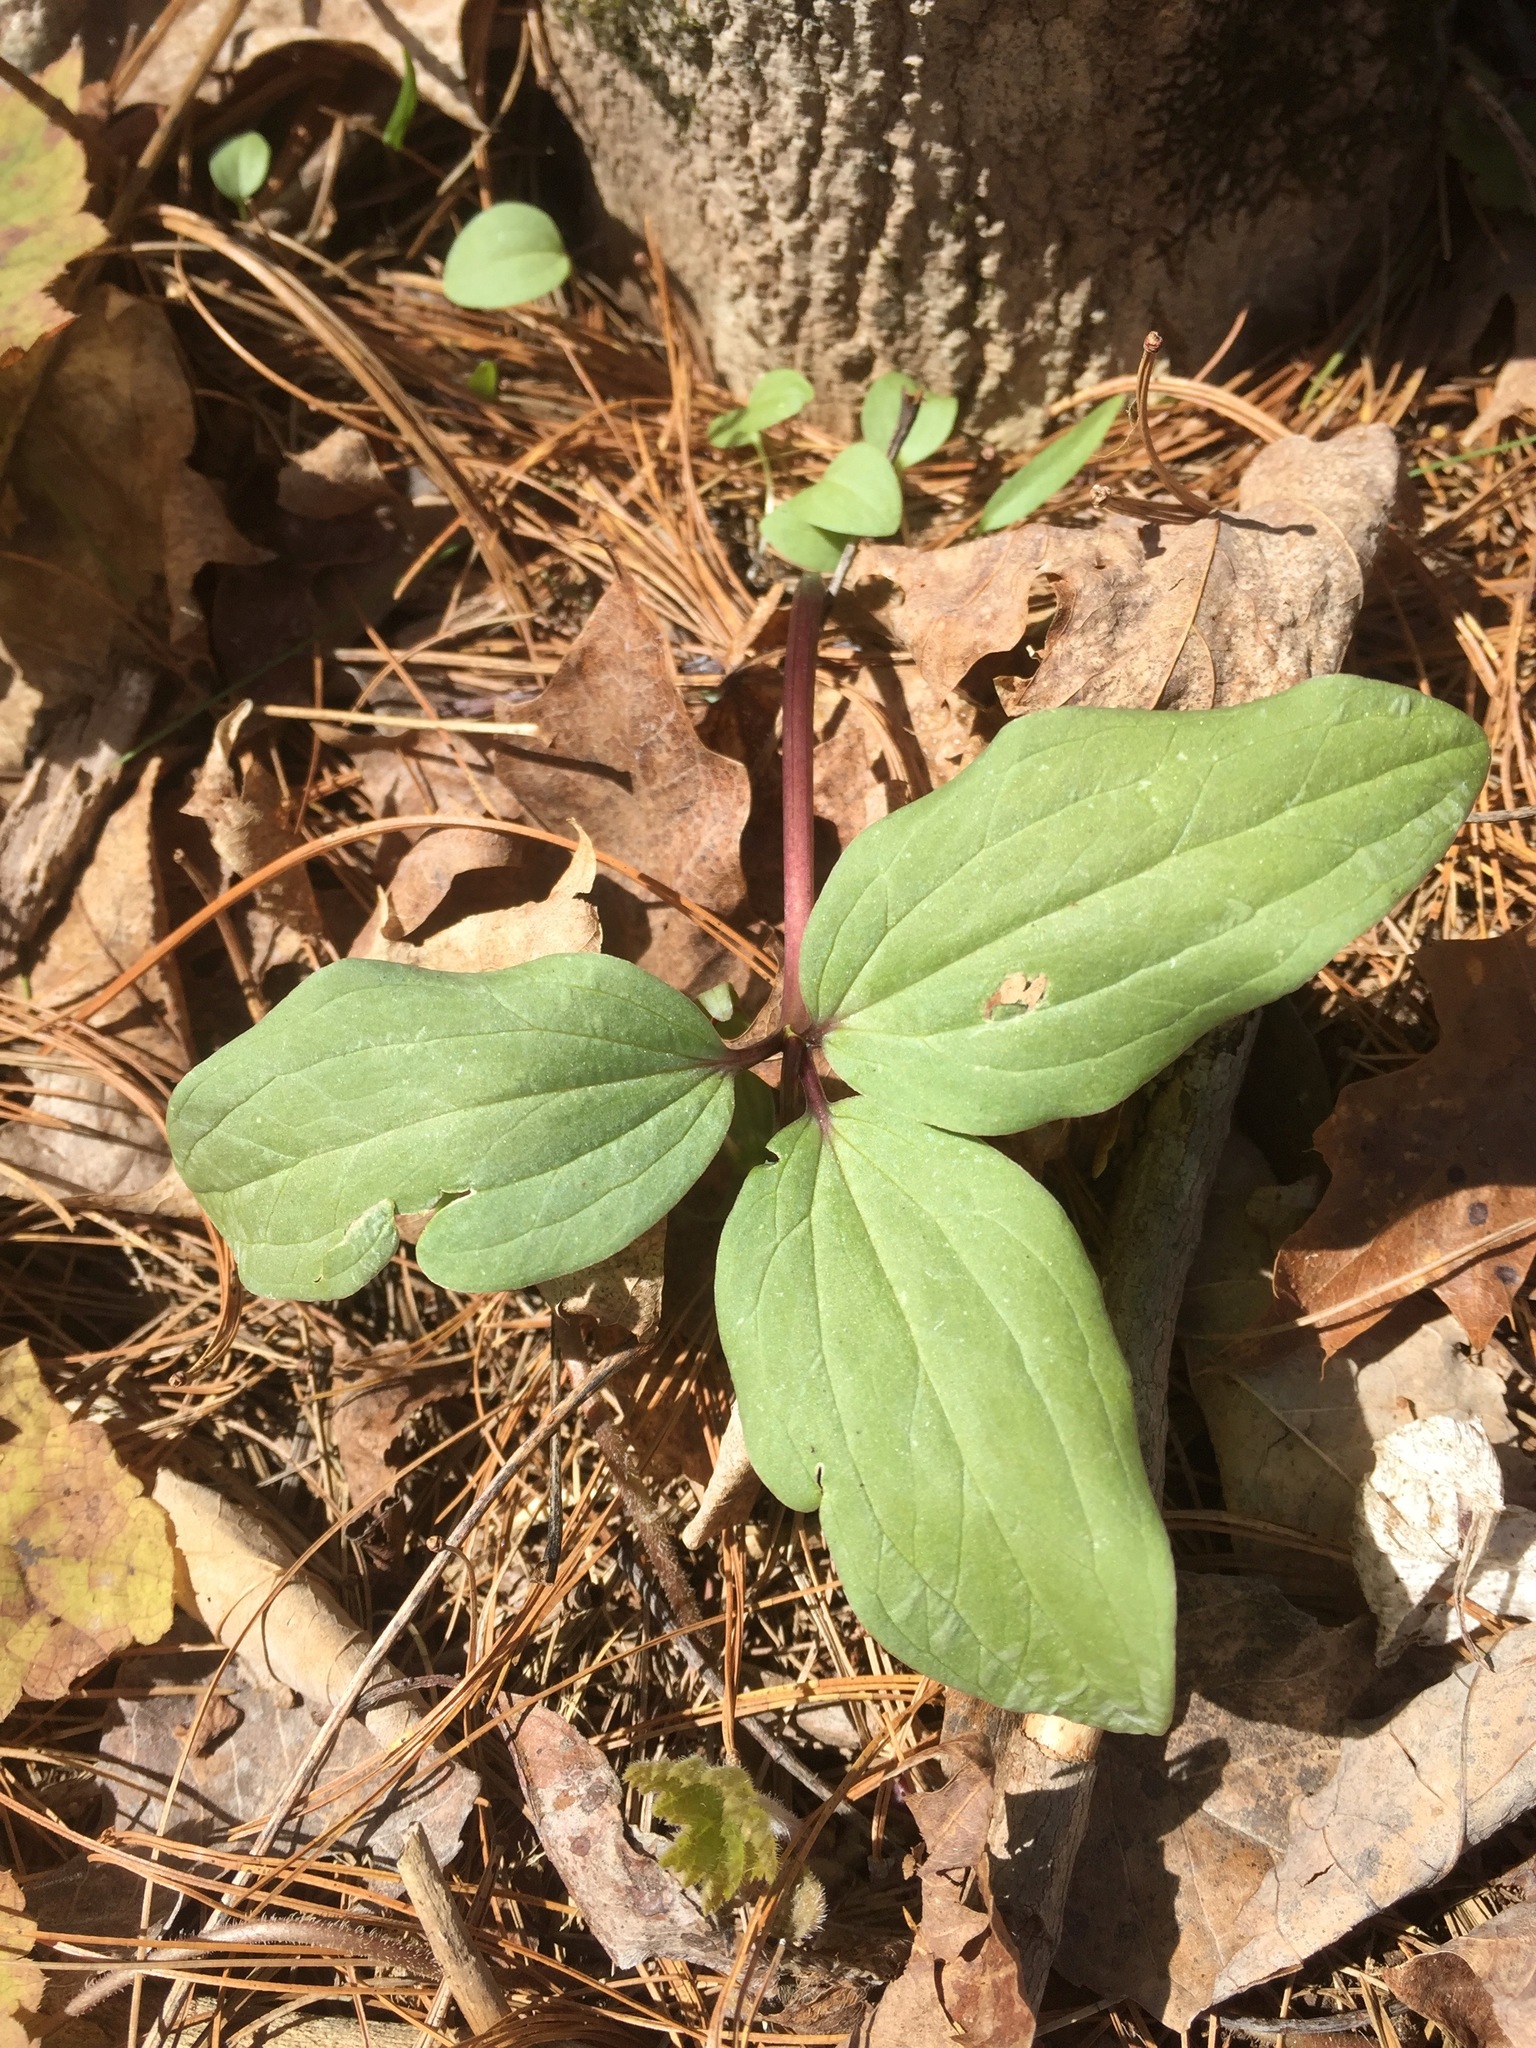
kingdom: Plantae
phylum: Tracheophyta
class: Liliopsida
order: Liliales
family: Melanthiaceae
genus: Trillium
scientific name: Trillium nivale
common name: Dwarf white trillium
